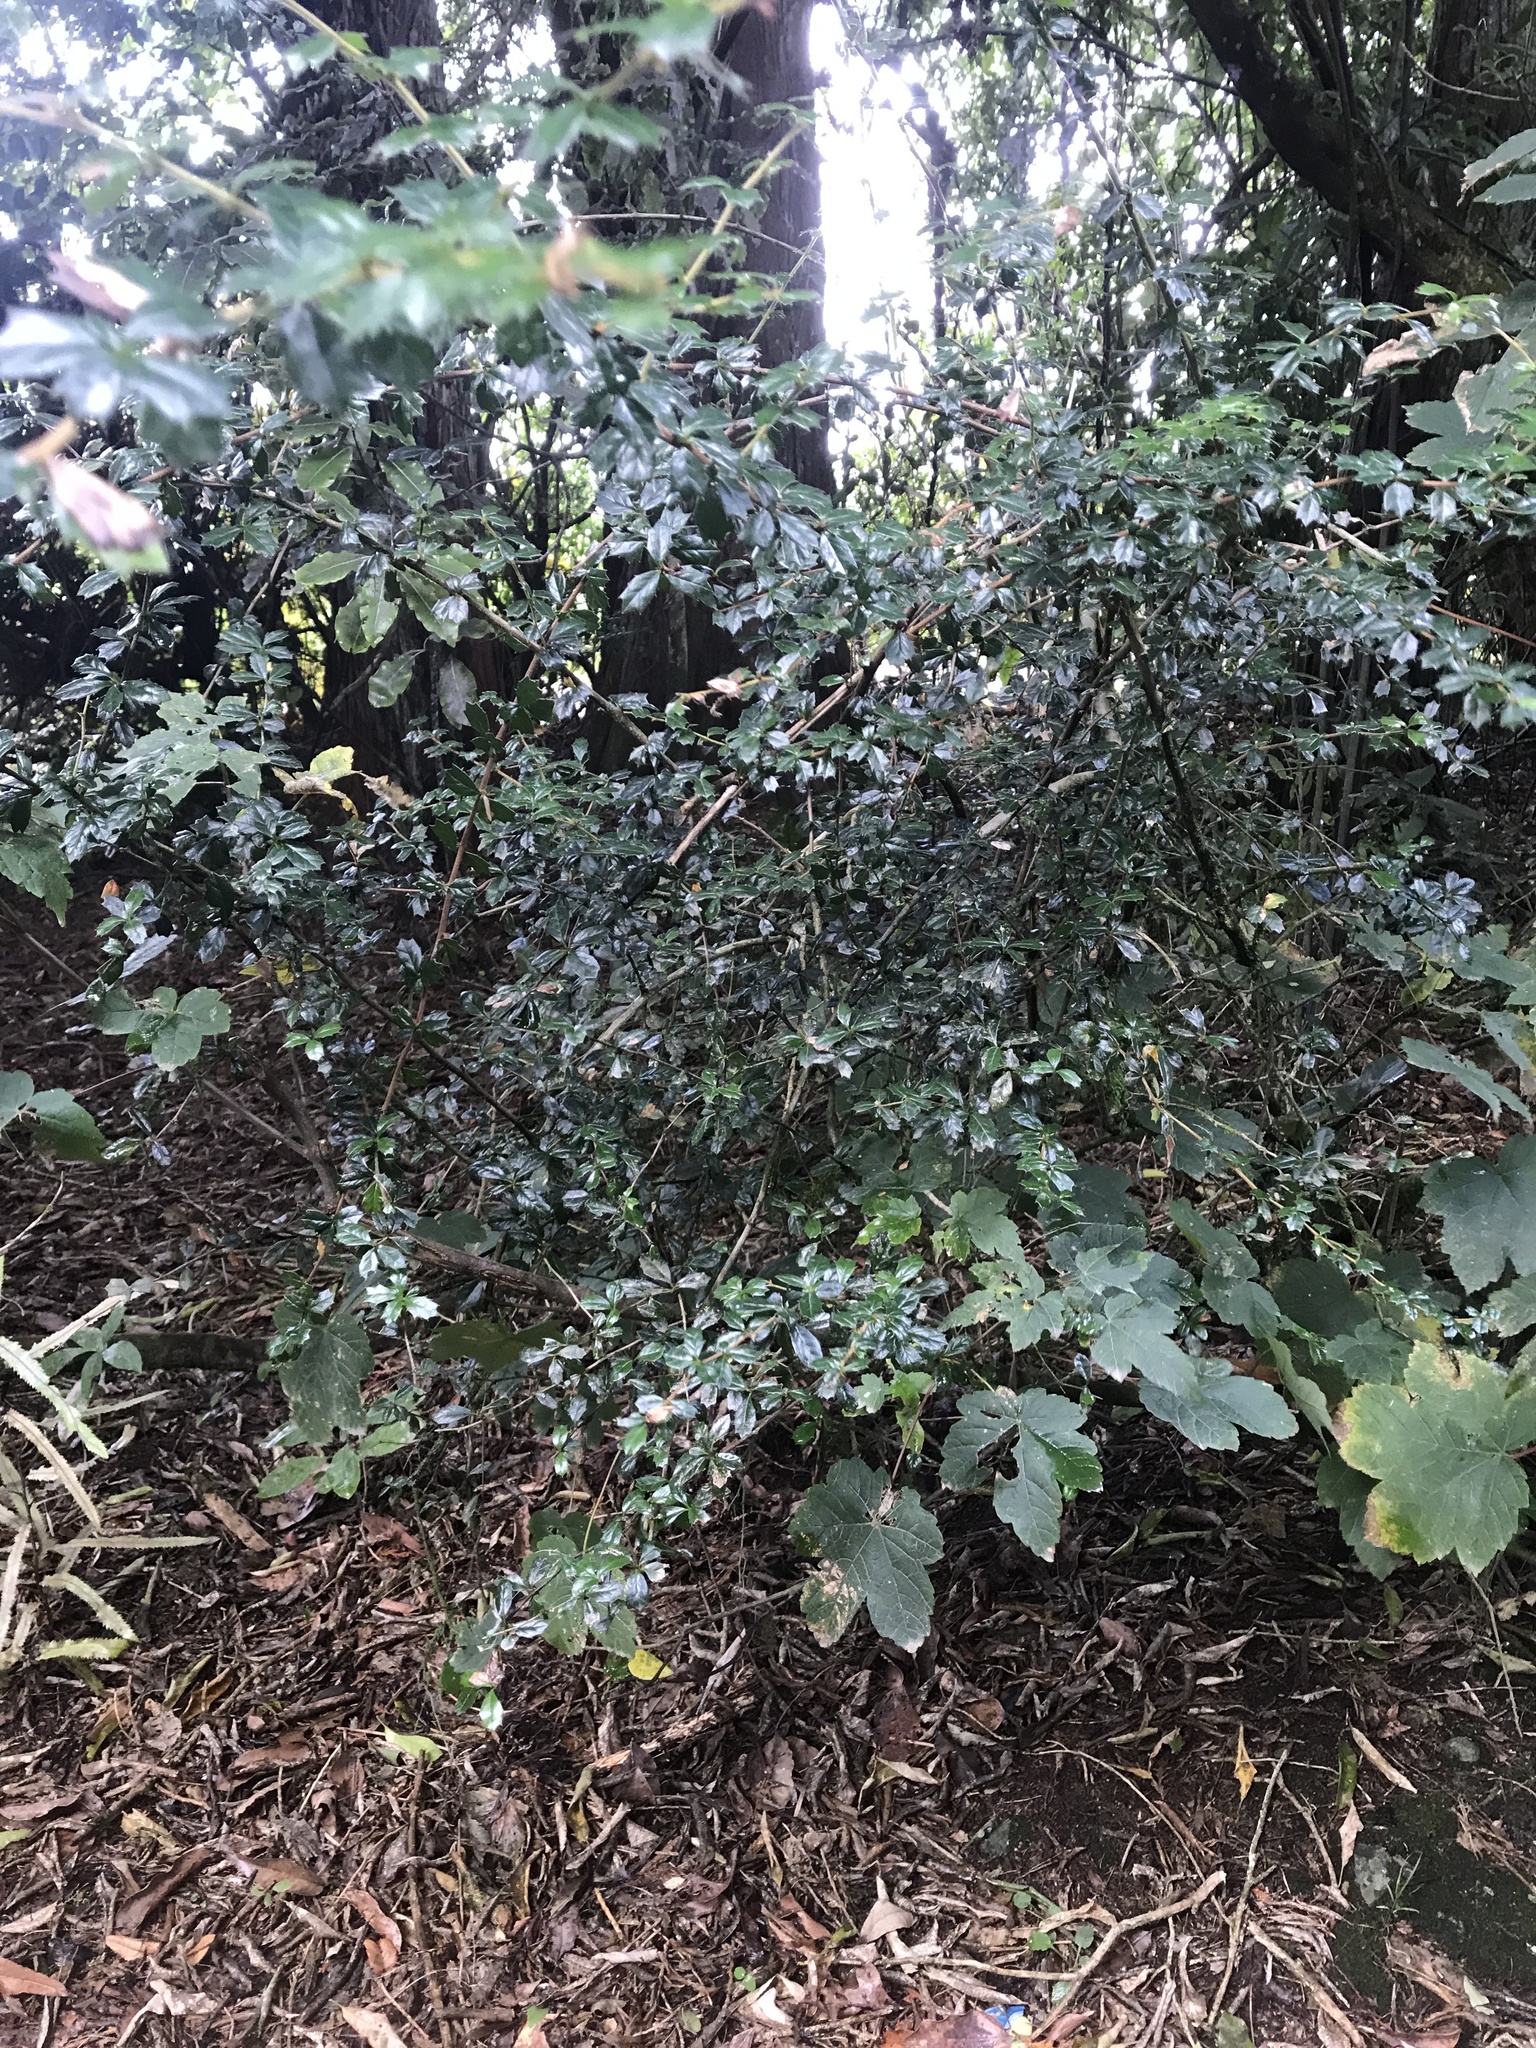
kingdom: Plantae
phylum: Tracheophyta
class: Magnoliopsida
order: Ranunculales
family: Berberidaceae
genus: Berberis
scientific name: Berberis darwinii
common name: Darwin's barberry
